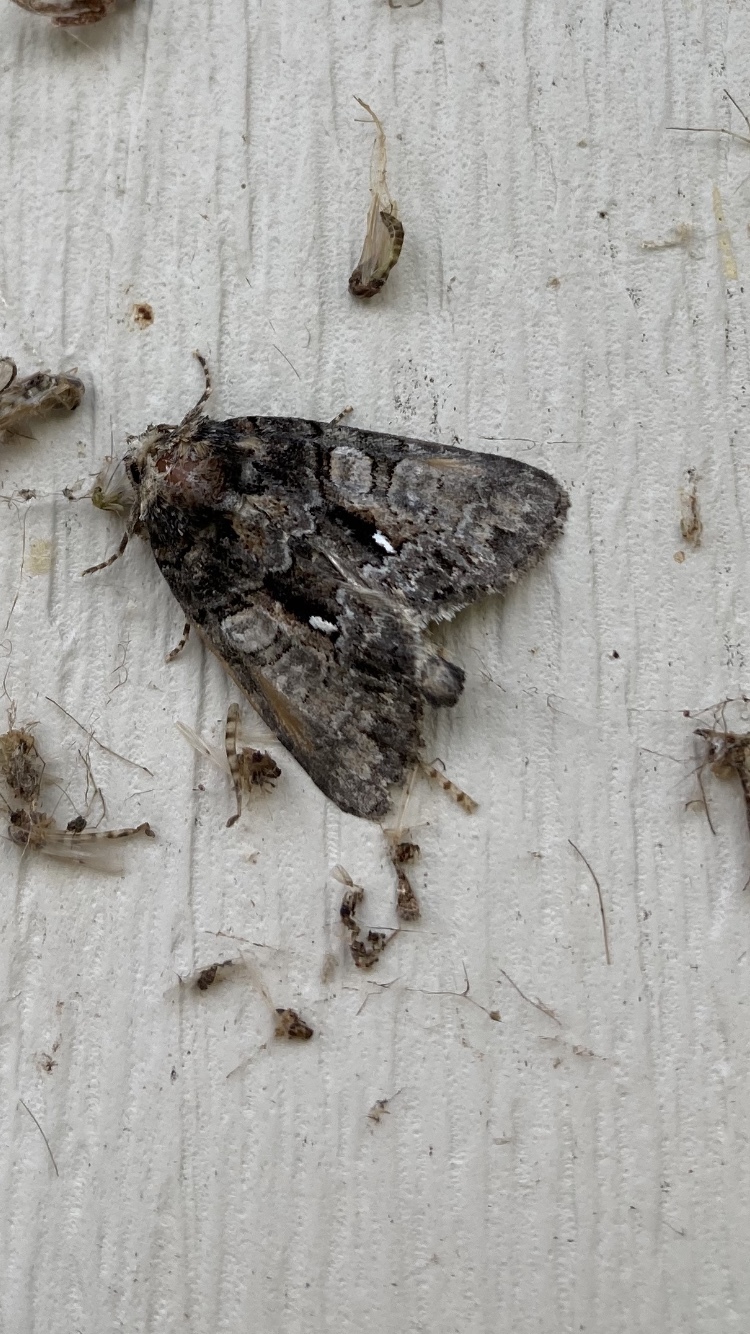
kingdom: Animalia
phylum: Arthropoda
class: Insecta
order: Lepidoptera
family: Noctuidae
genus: Chytonix
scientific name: Chytonix palliatricula
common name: Cloaked marvel
